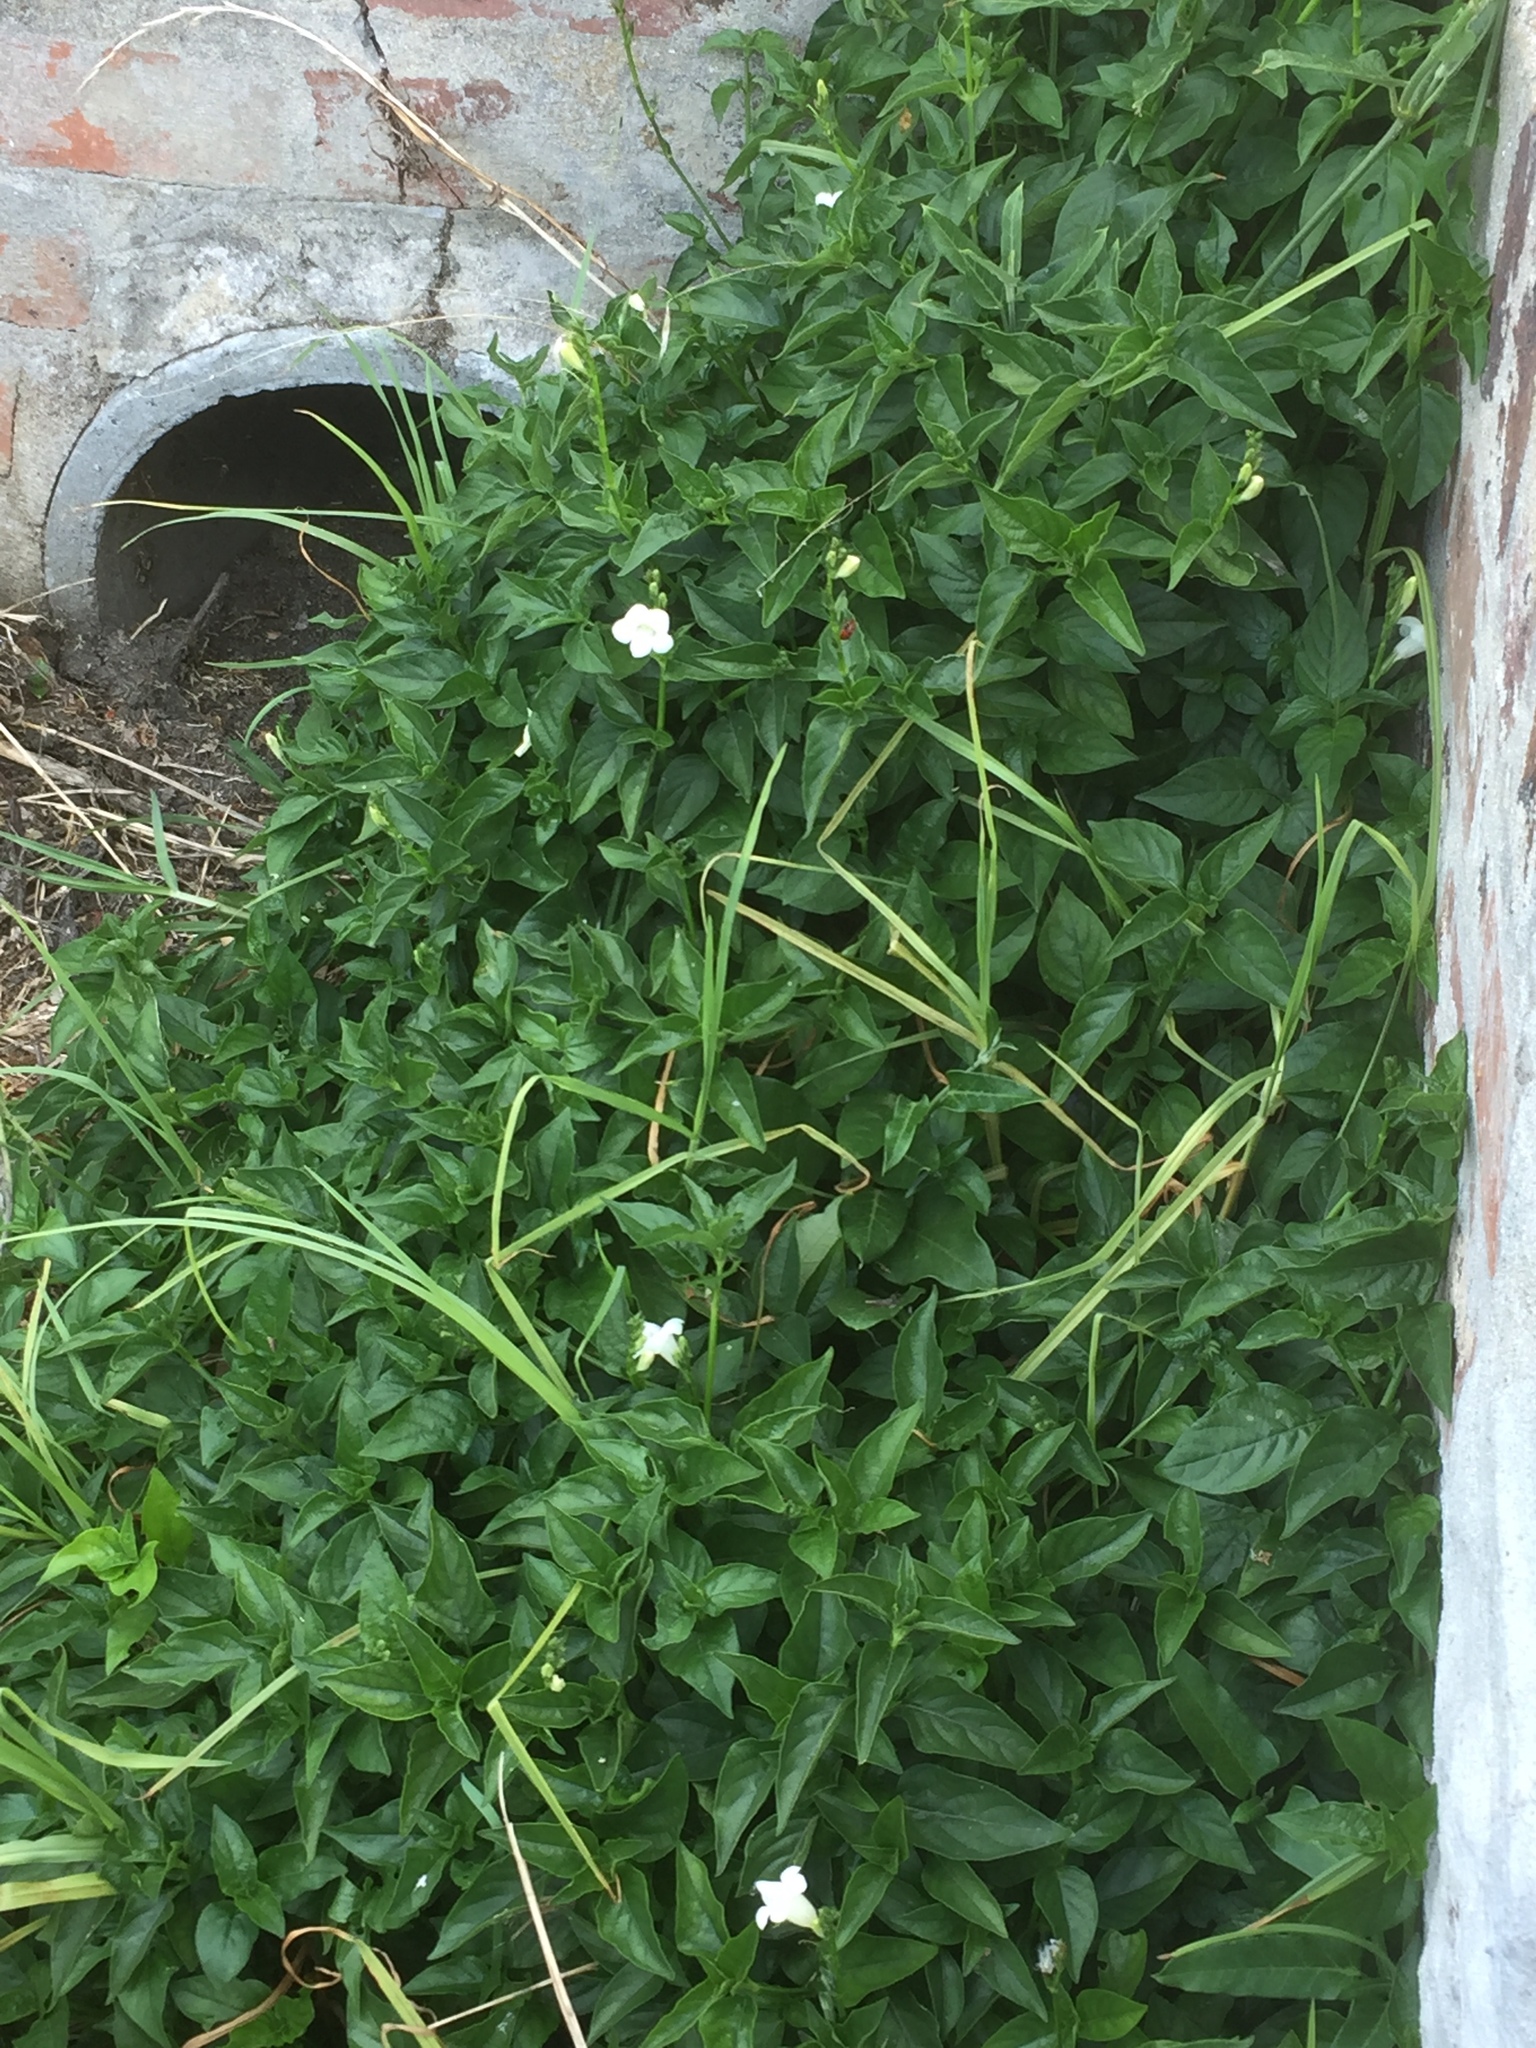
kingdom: Plantae
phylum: Tracheophyta
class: Magnoliopsida
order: Lamiales
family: Acanthaceae
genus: Asystasia
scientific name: Asystasia intrusa
